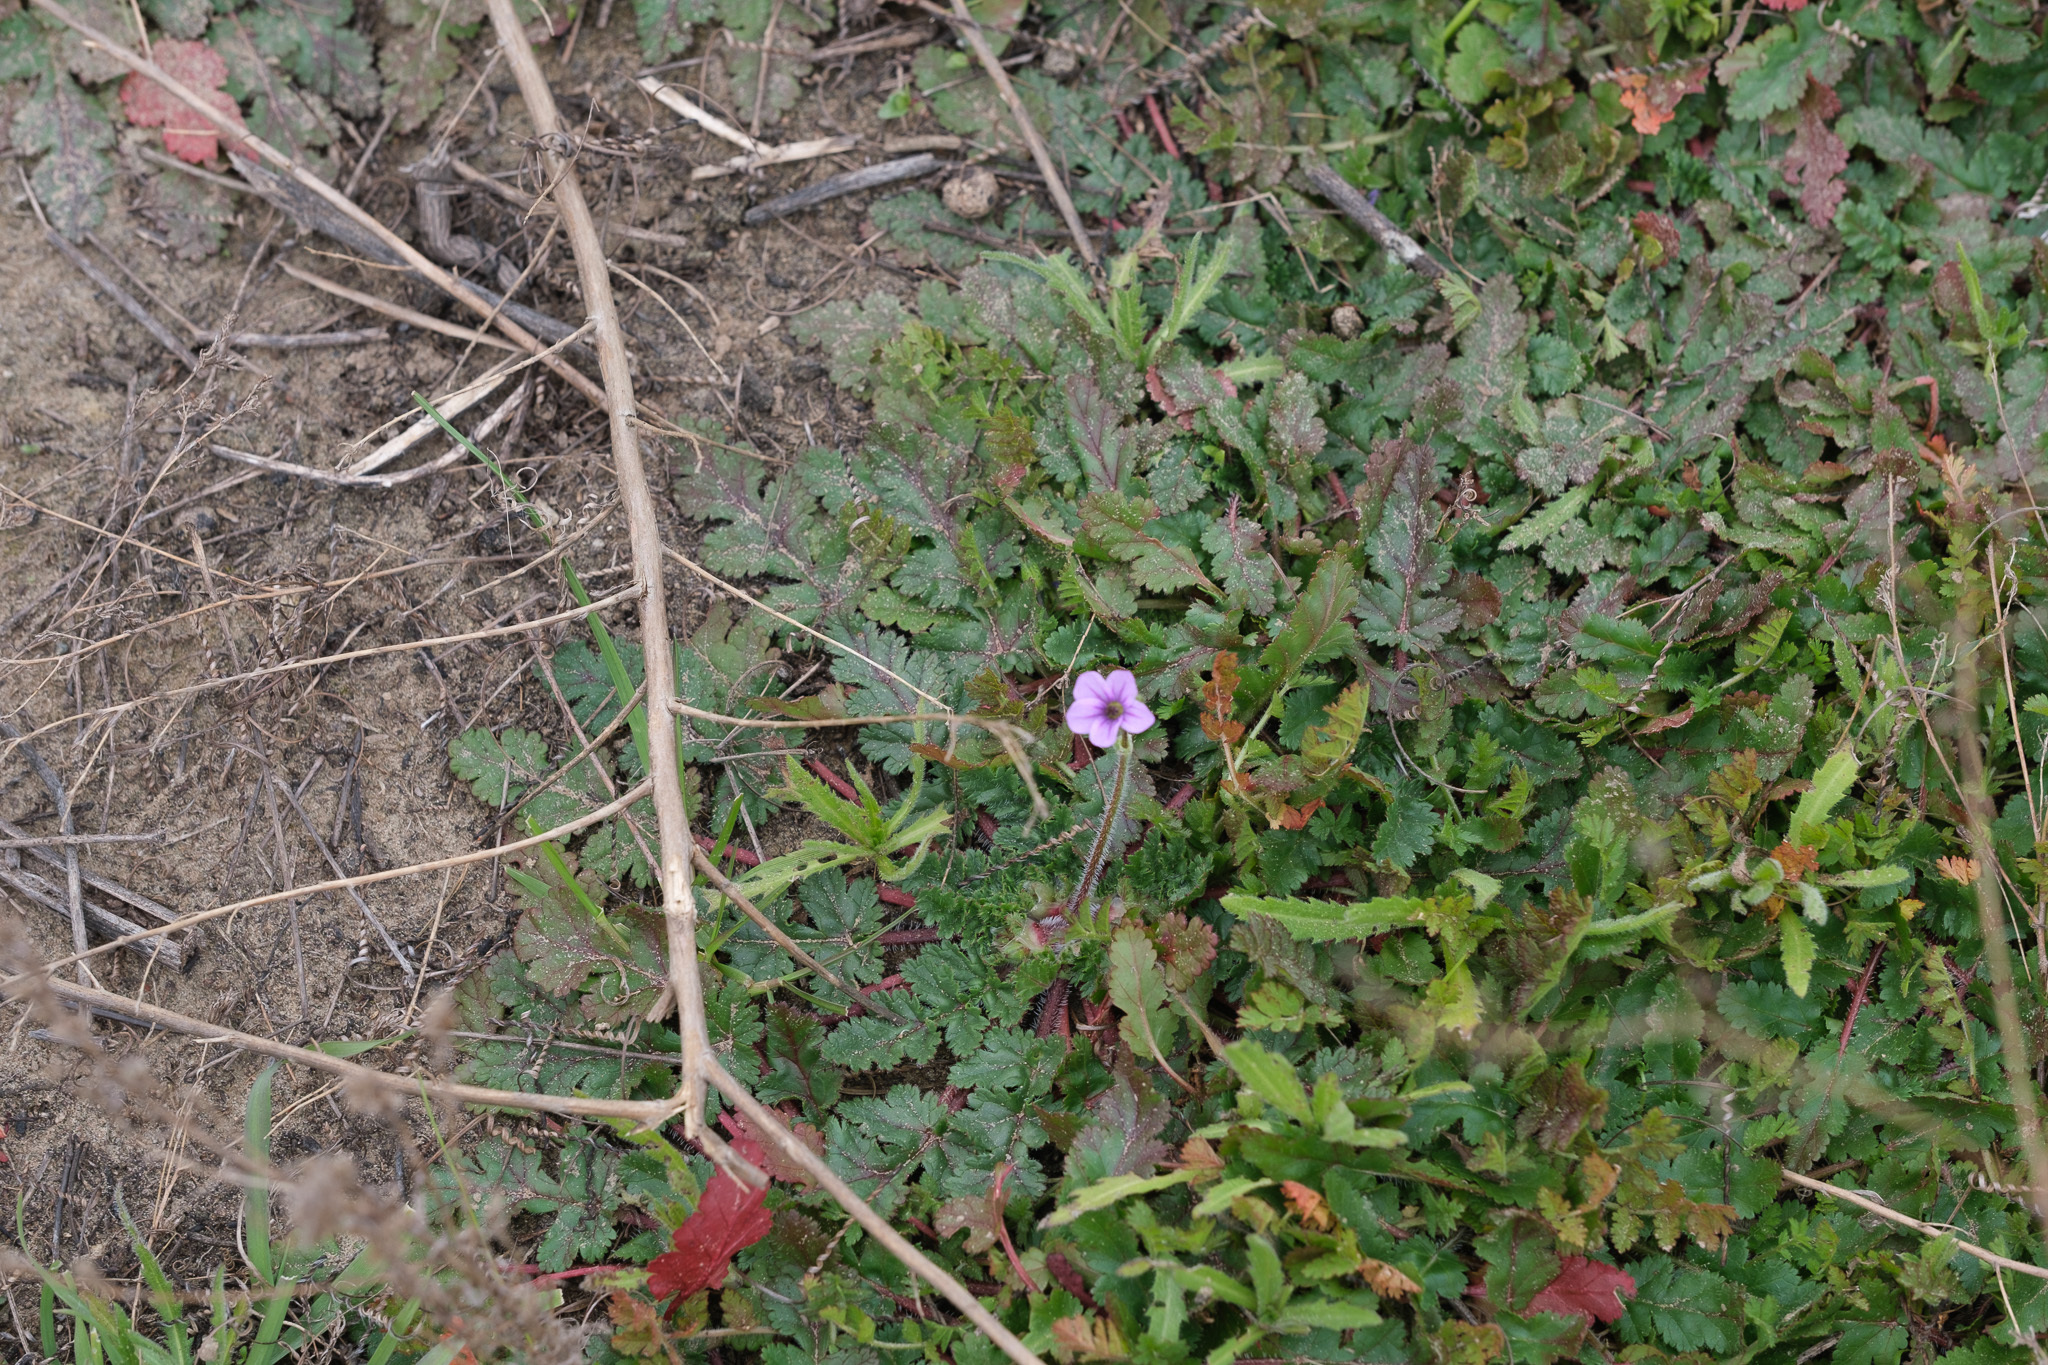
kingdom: Plantae
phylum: Tracheophyta
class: Magnoliopsida
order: Geraniales
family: Geraniaceae
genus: Erodium
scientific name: Erodium botrys
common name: Mediterranean stork's-bill
